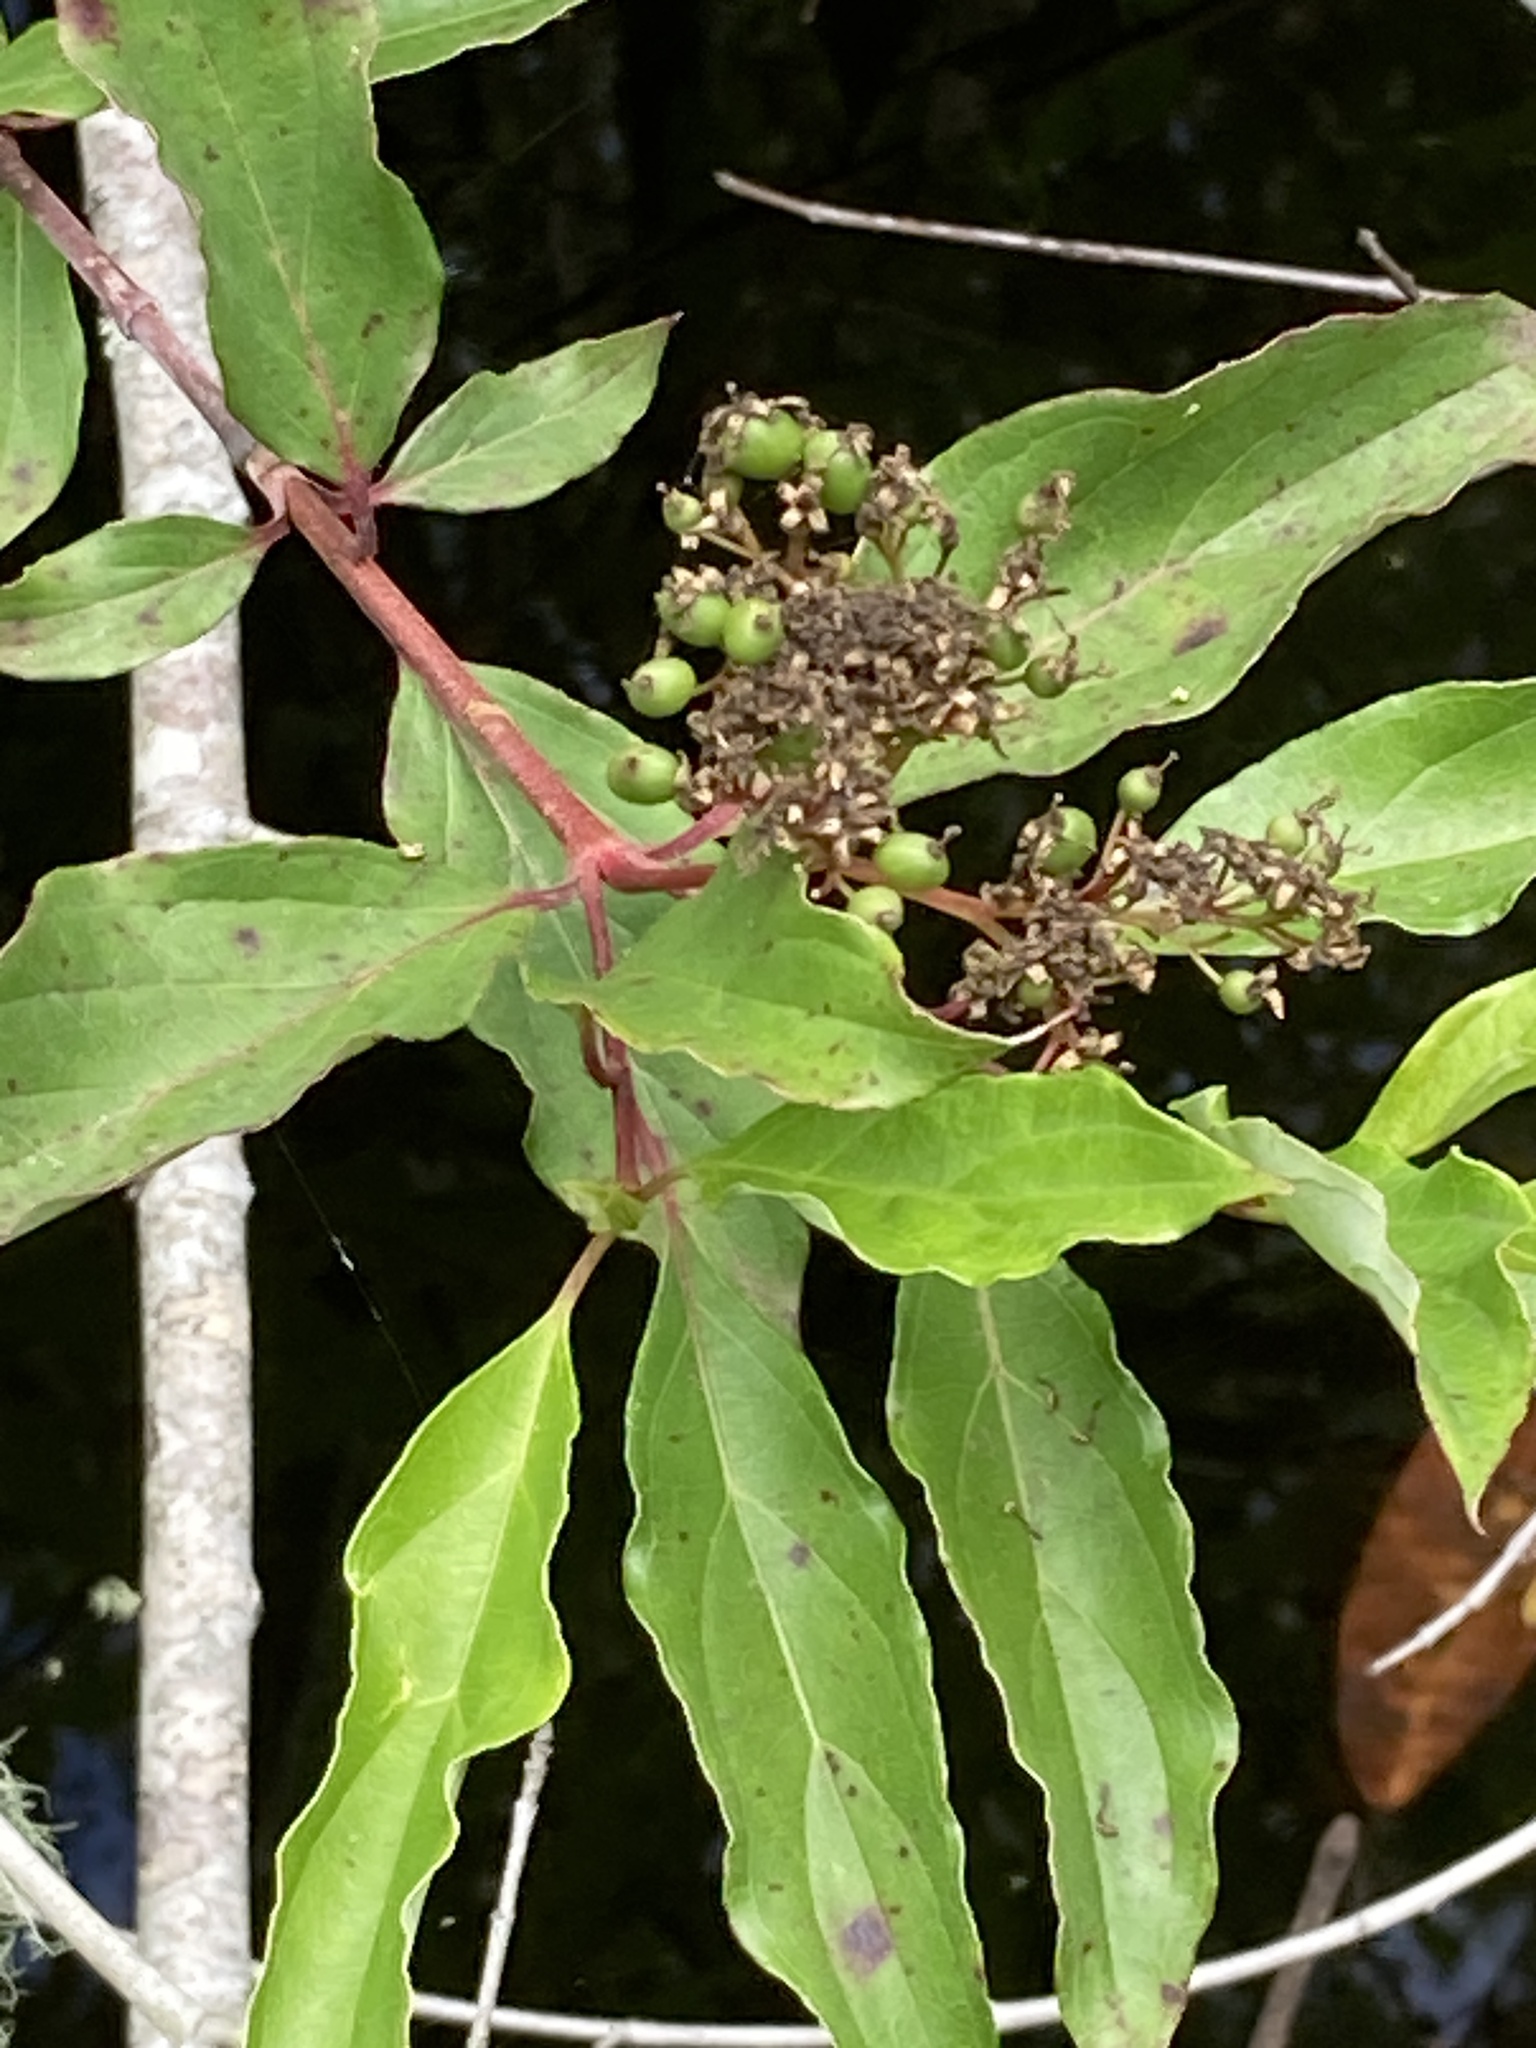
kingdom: Plantae
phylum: Tracheophyta
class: Magnoliopsida
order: Cornales
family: Cornaceae
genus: Cornus
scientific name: Cornus foemina
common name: Swamp dogwood
